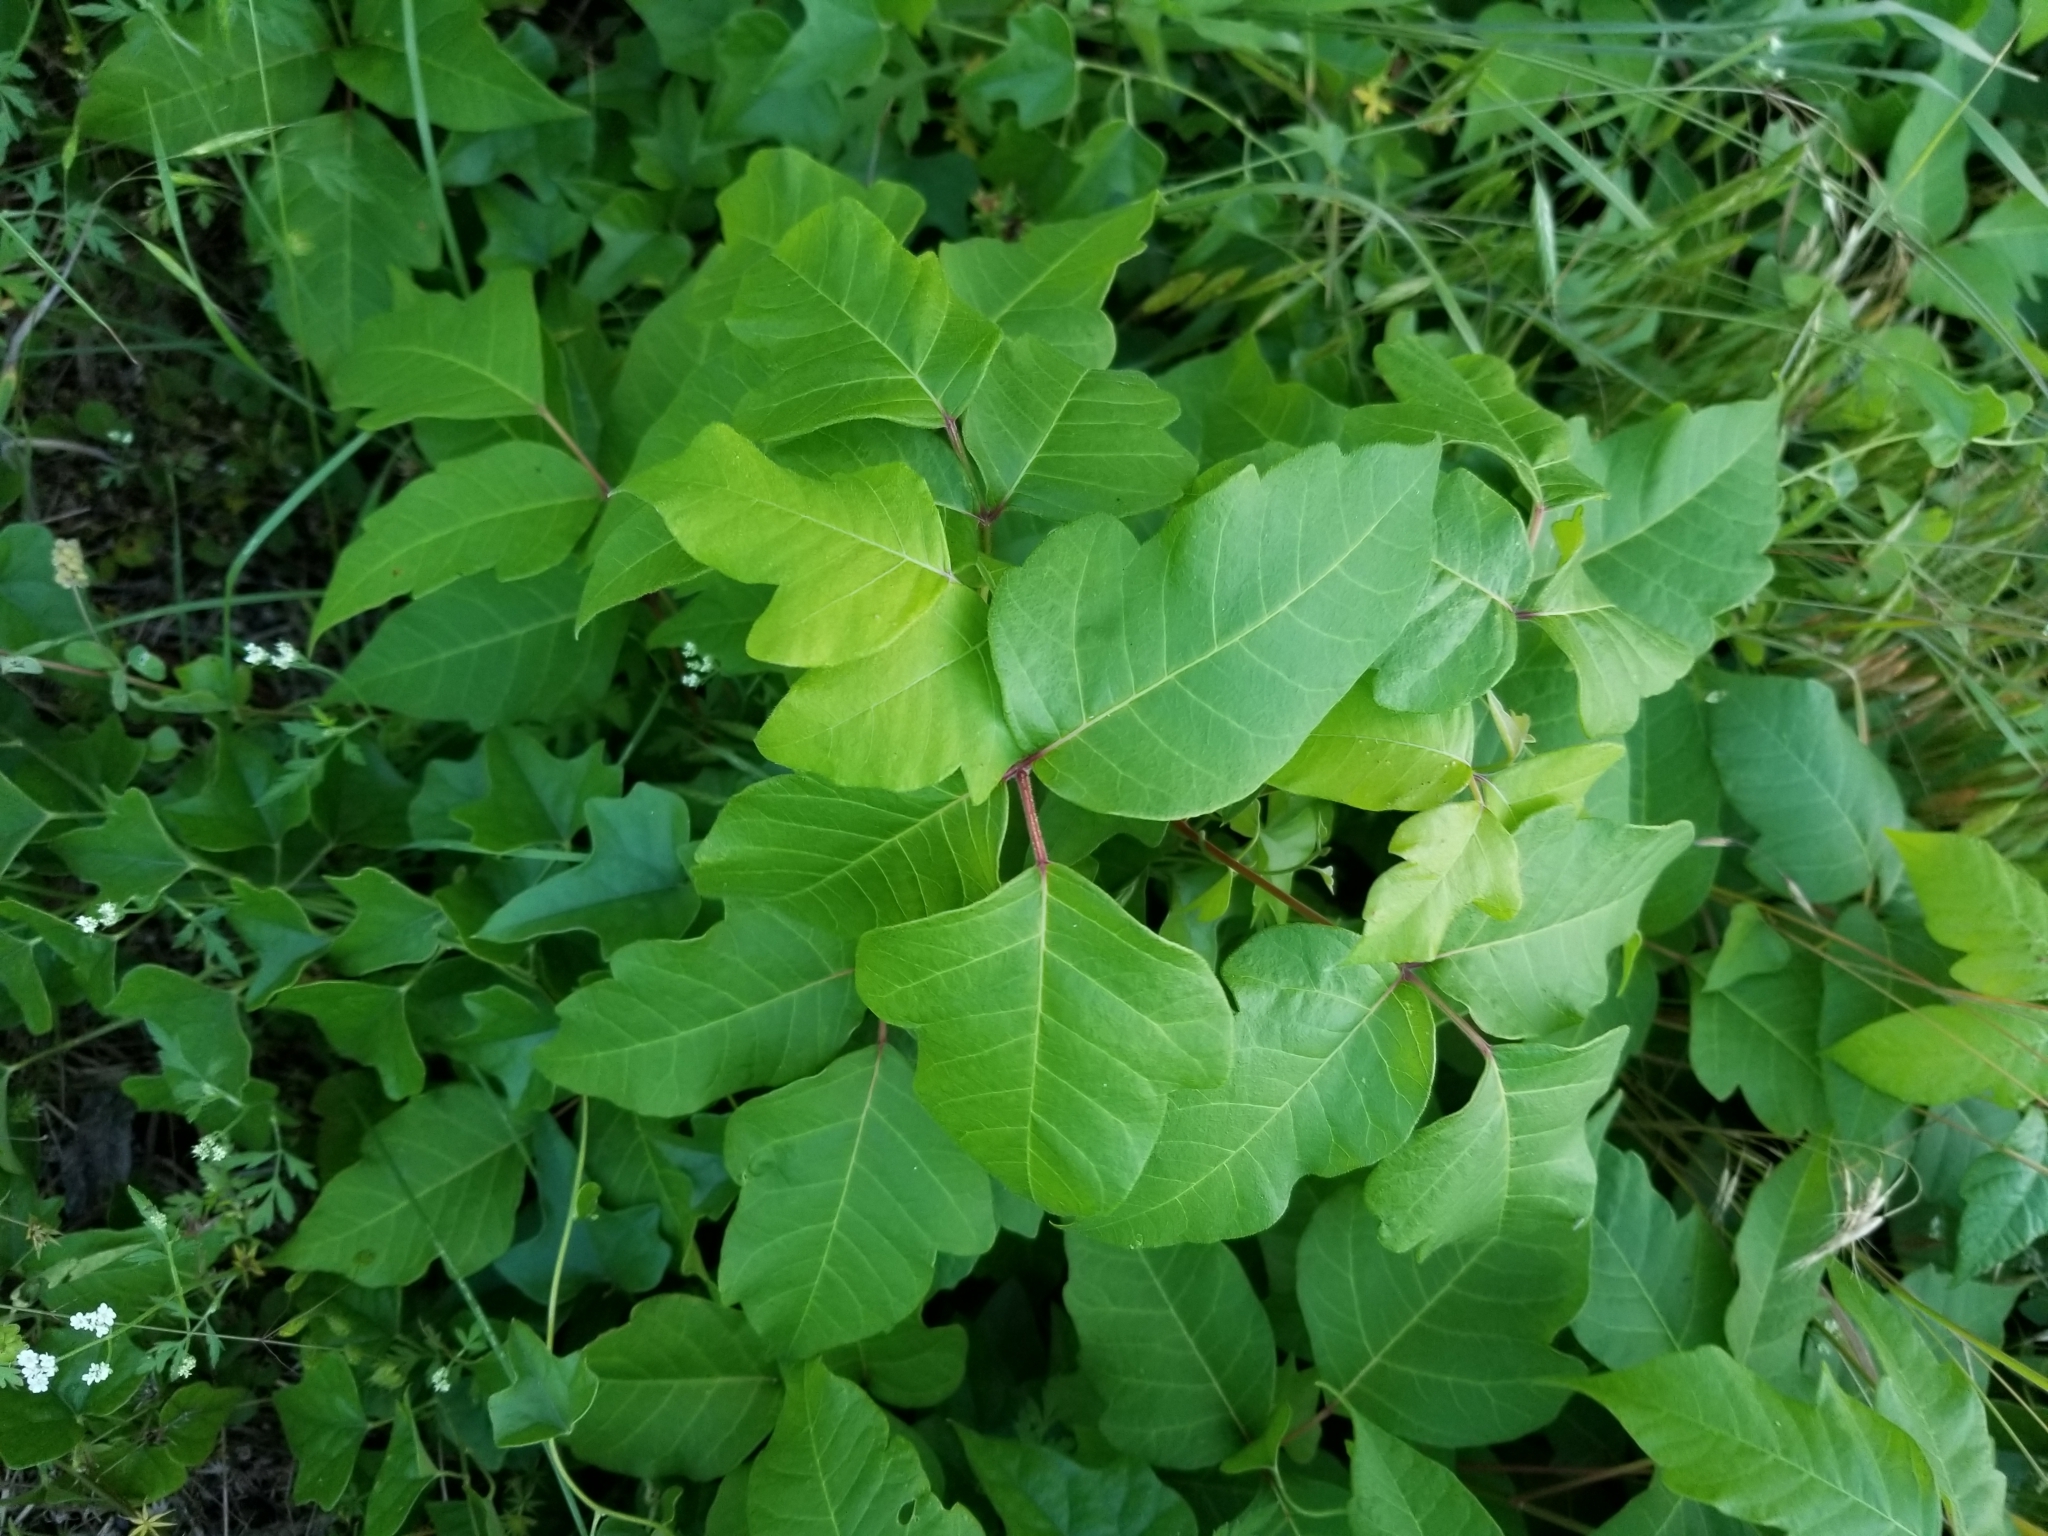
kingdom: Plantae
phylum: Tracheophyta
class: Magnoliopsida
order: Sapindales
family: Anacardiaceae
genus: Toxicodendron
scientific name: Toxicodendron radicans
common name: Poison ivy
